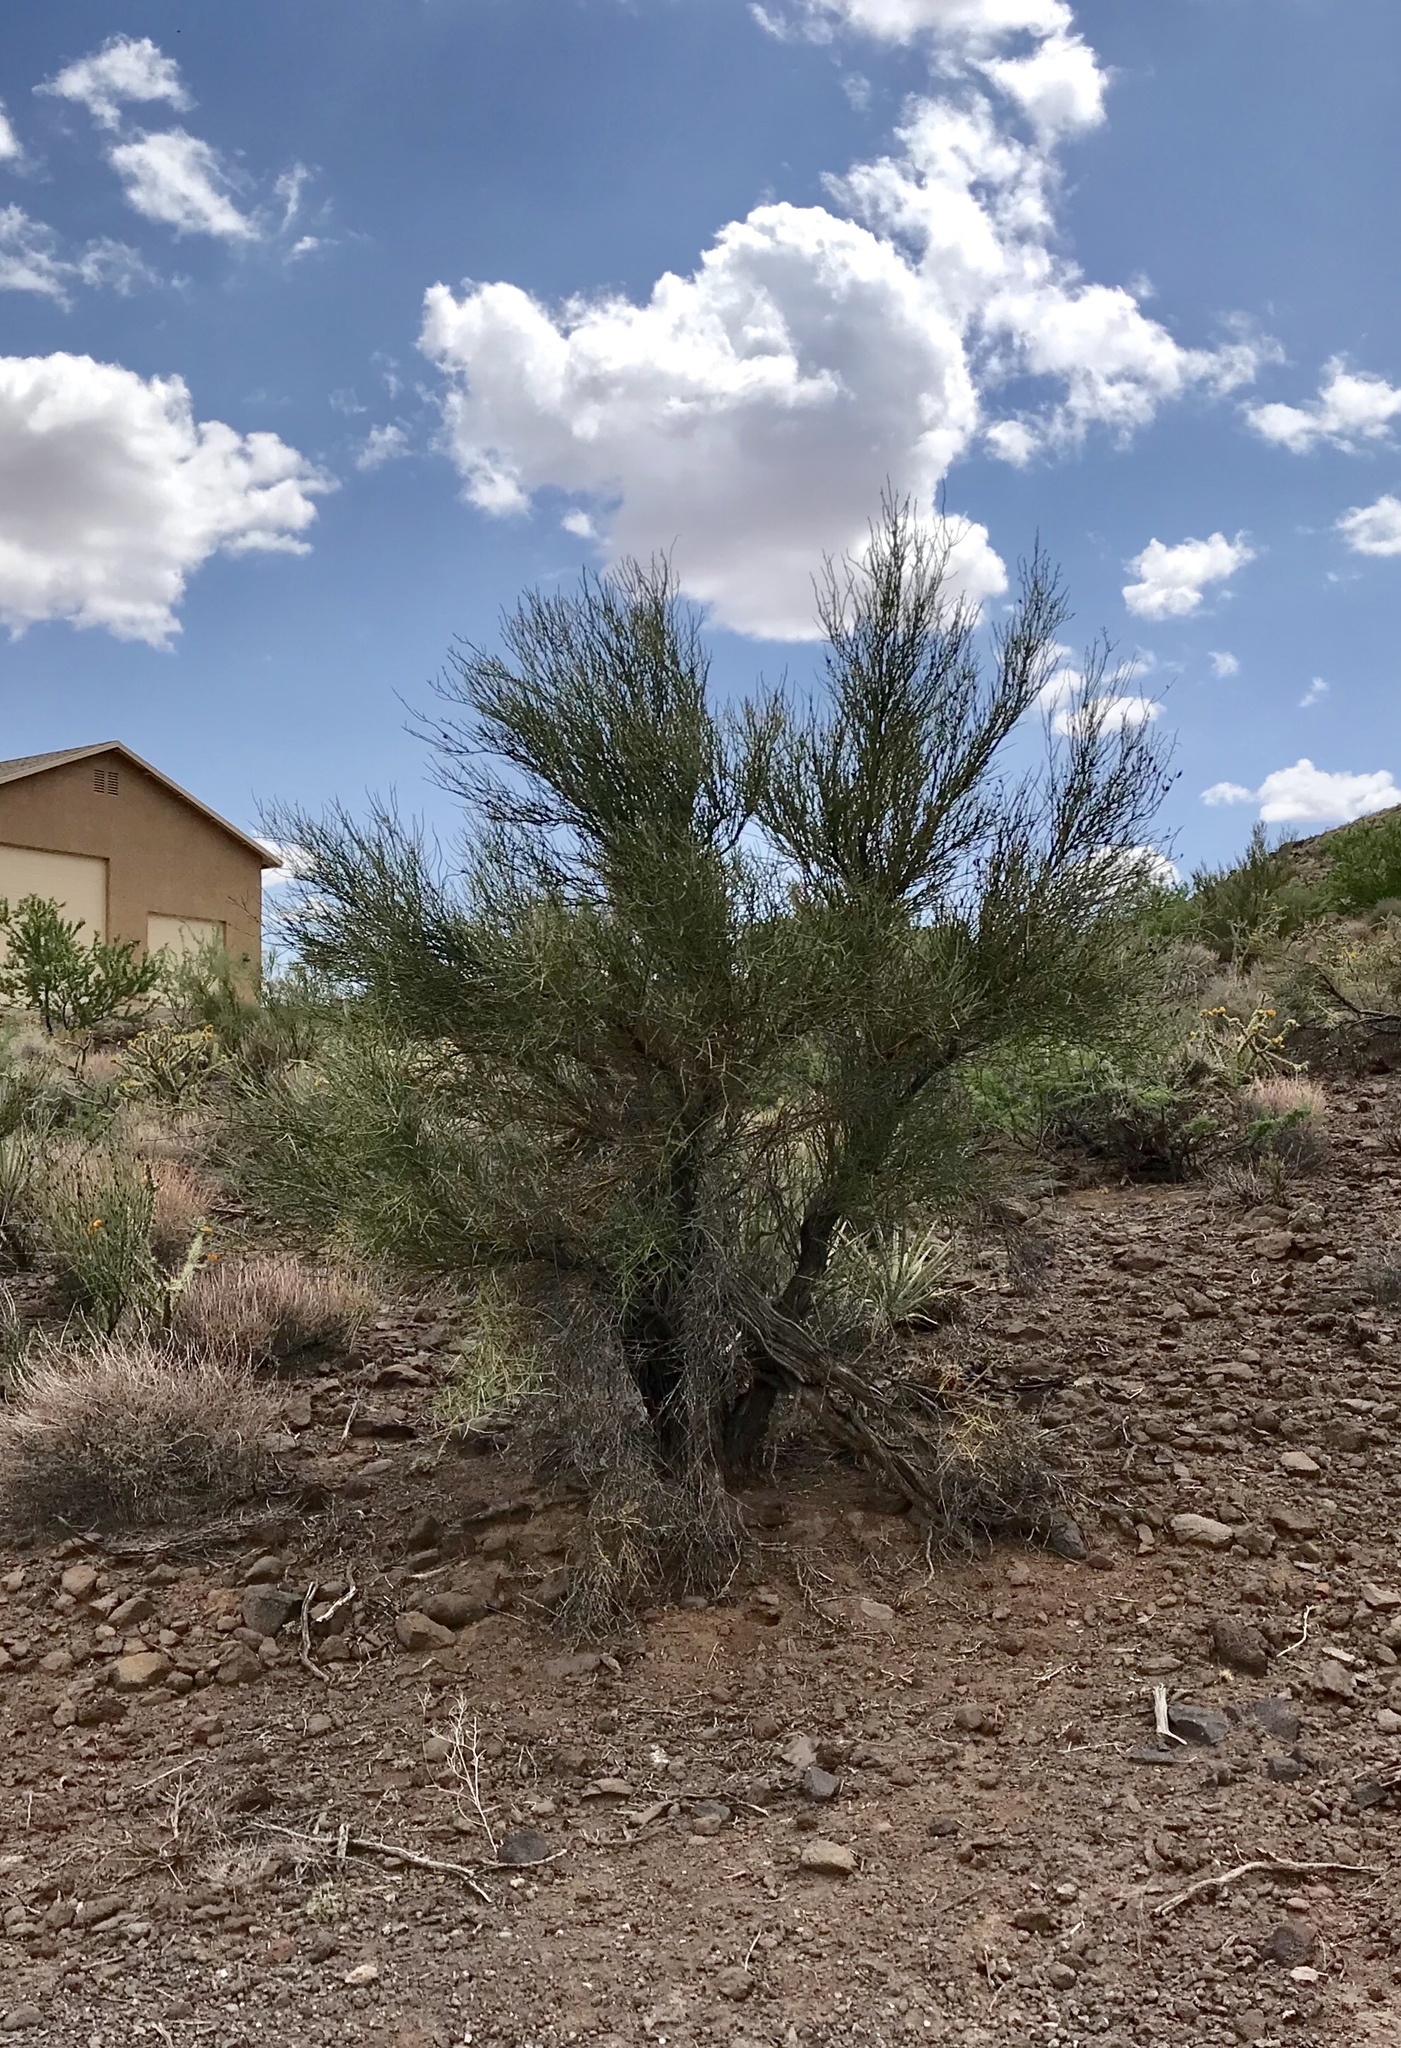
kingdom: Plantae
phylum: Tracheophyta
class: Magnoliopsida
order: Celastrales
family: Celastraceae
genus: Canotia
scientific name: Canotia holacantha
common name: Crucifixion thorns
